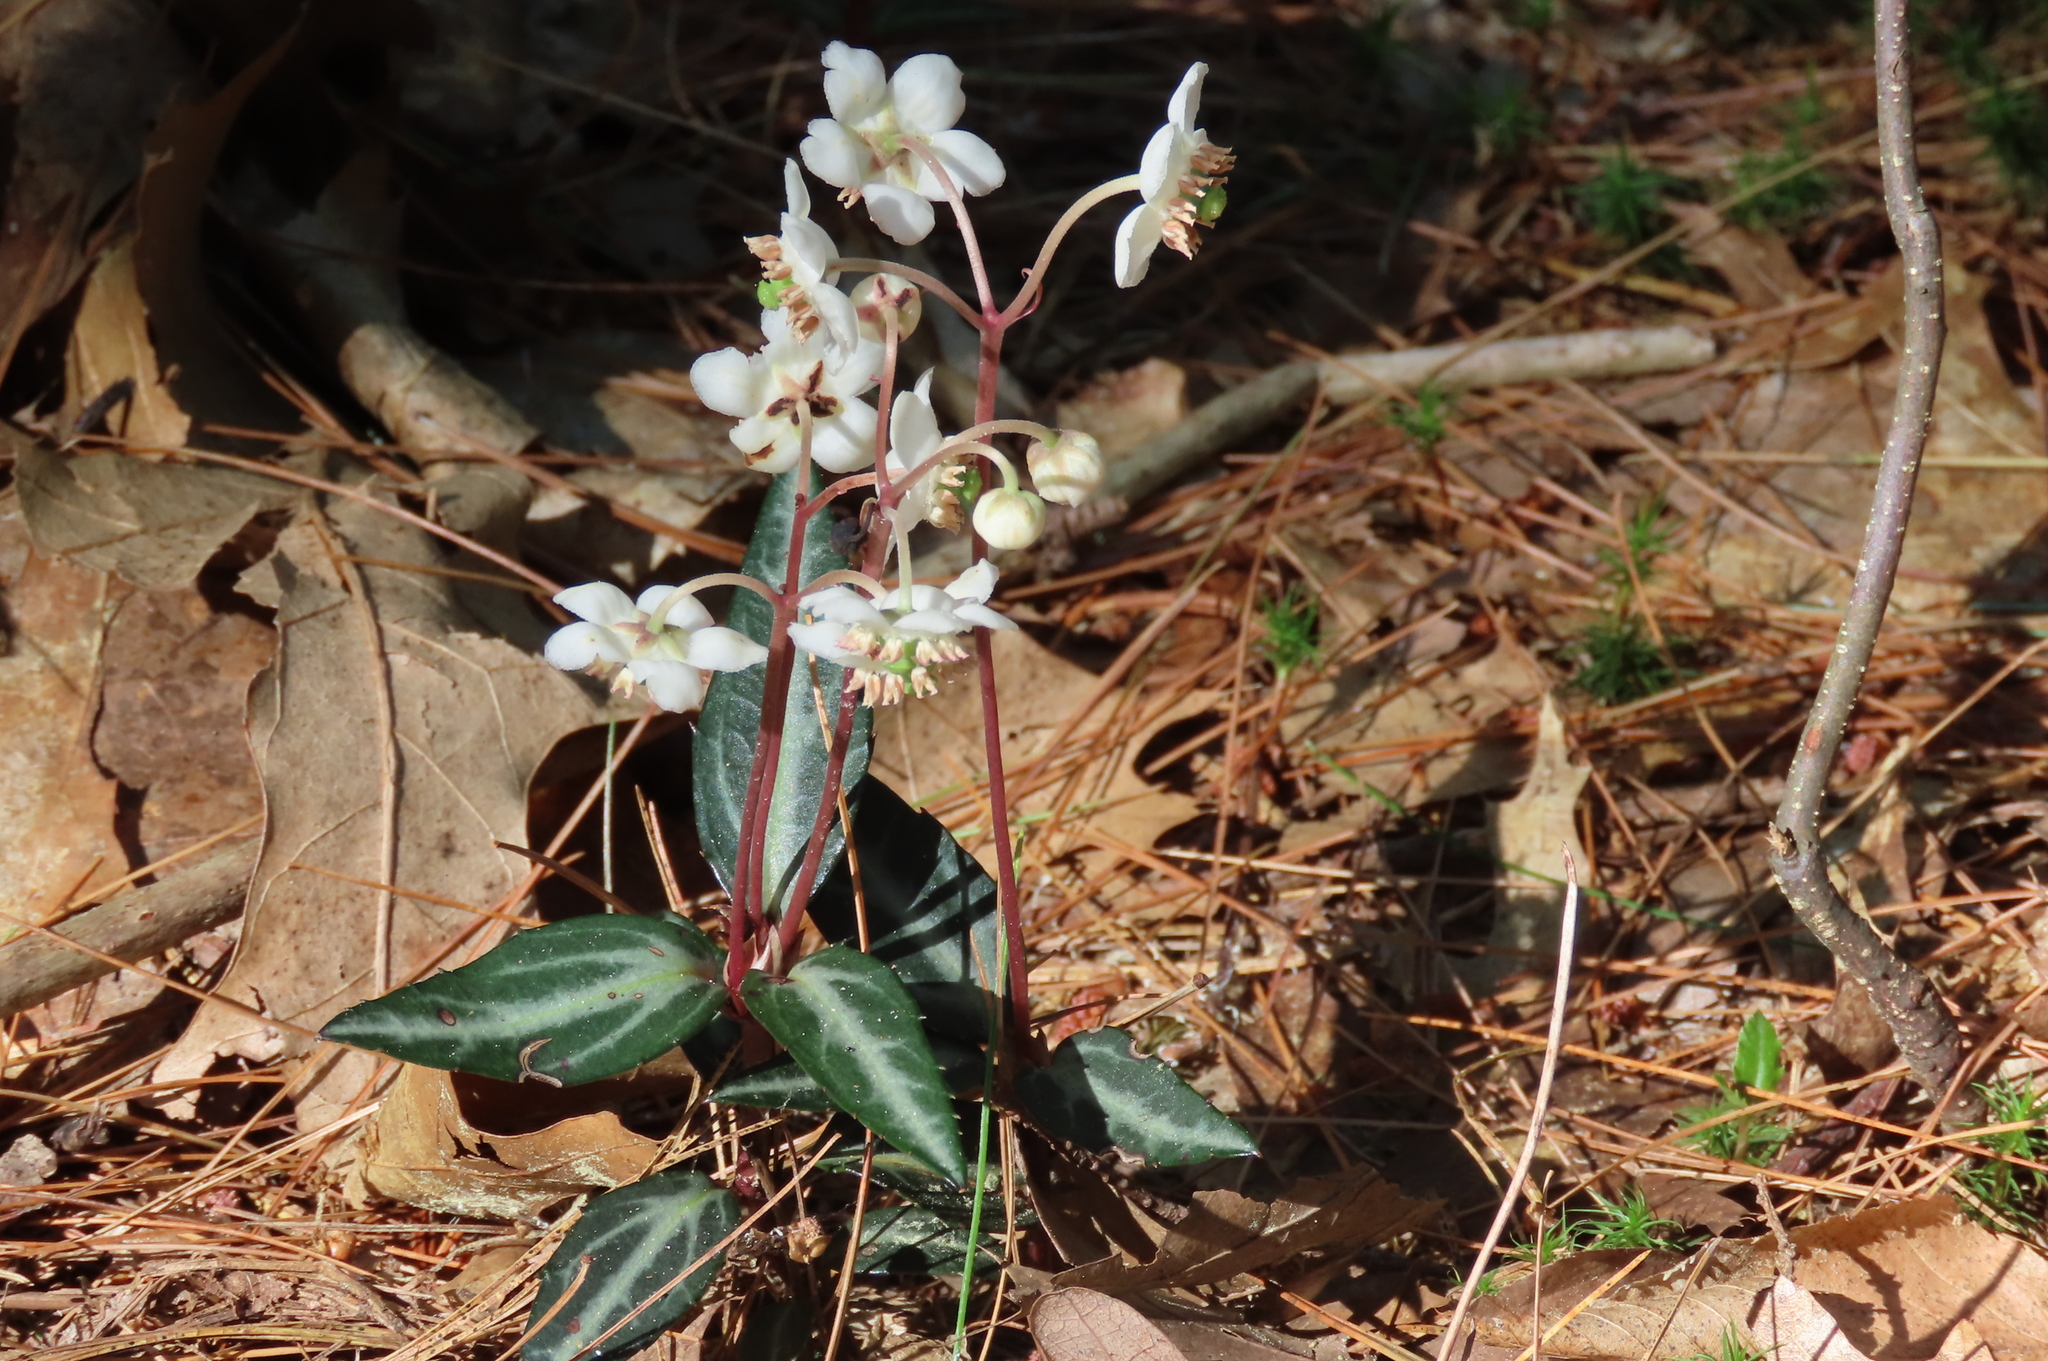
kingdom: Plantae
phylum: Tracheophyta
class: Magnoliopsida
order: Ericales
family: Ericaceae
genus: Chimaphila
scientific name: Chimaphila maculata
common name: Spotted pipsissewa
